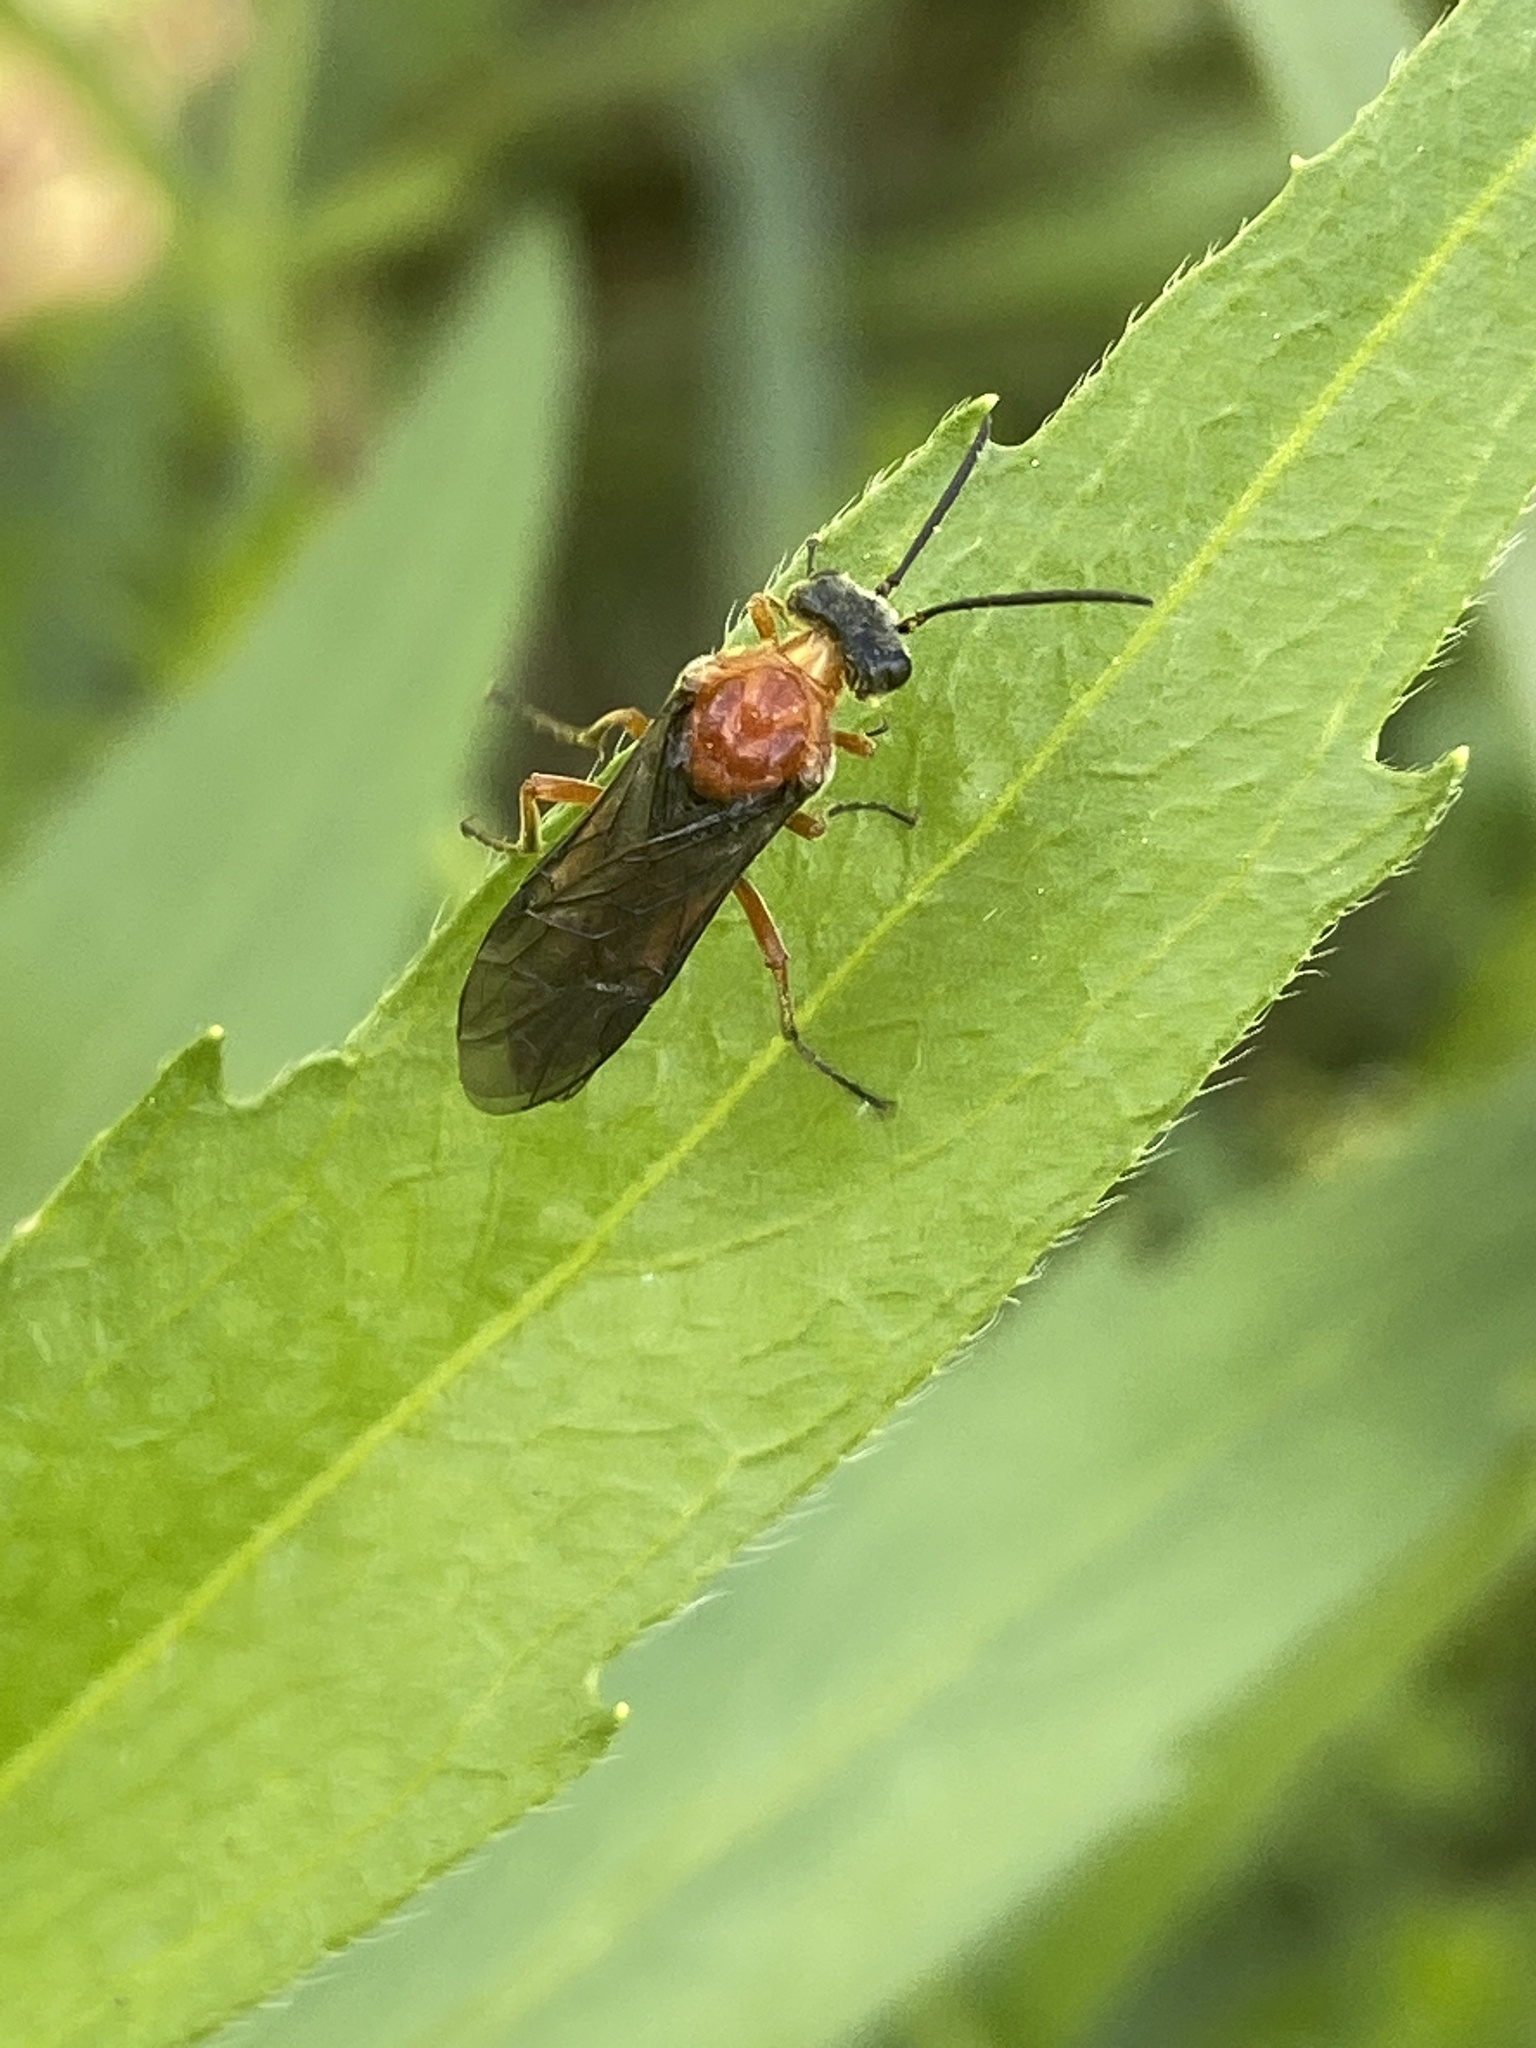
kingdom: Animalia
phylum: Arthropoda
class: Insecta
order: Hymenoptera
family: Tenthredinidae
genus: Dolerus
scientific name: Dolerus germanicus
